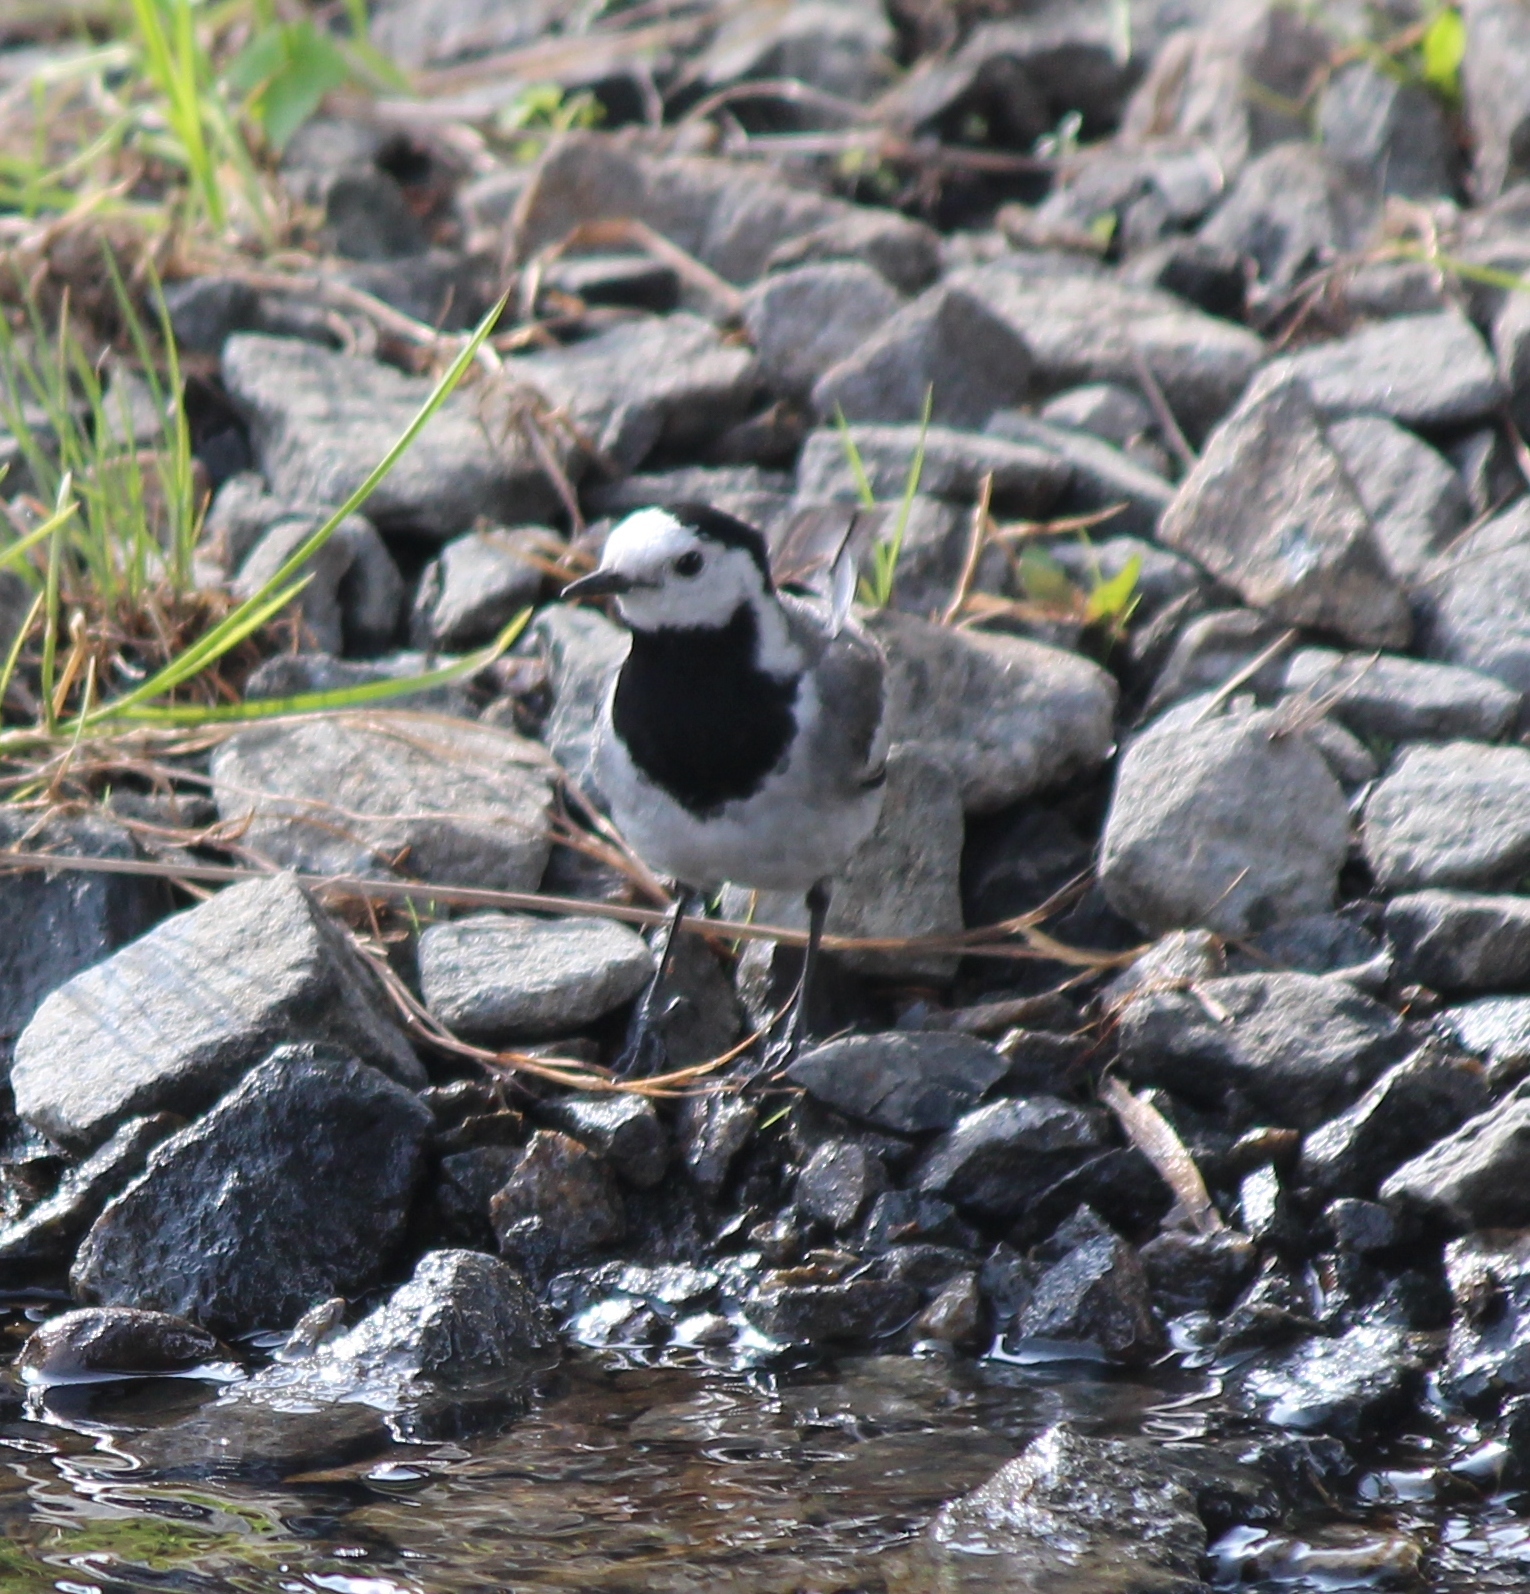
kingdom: Animalia
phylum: Chordata
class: Aves
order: Passeriformes
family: Motacillidae
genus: Motacilla
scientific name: Motacilla alba
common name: White wagtail
